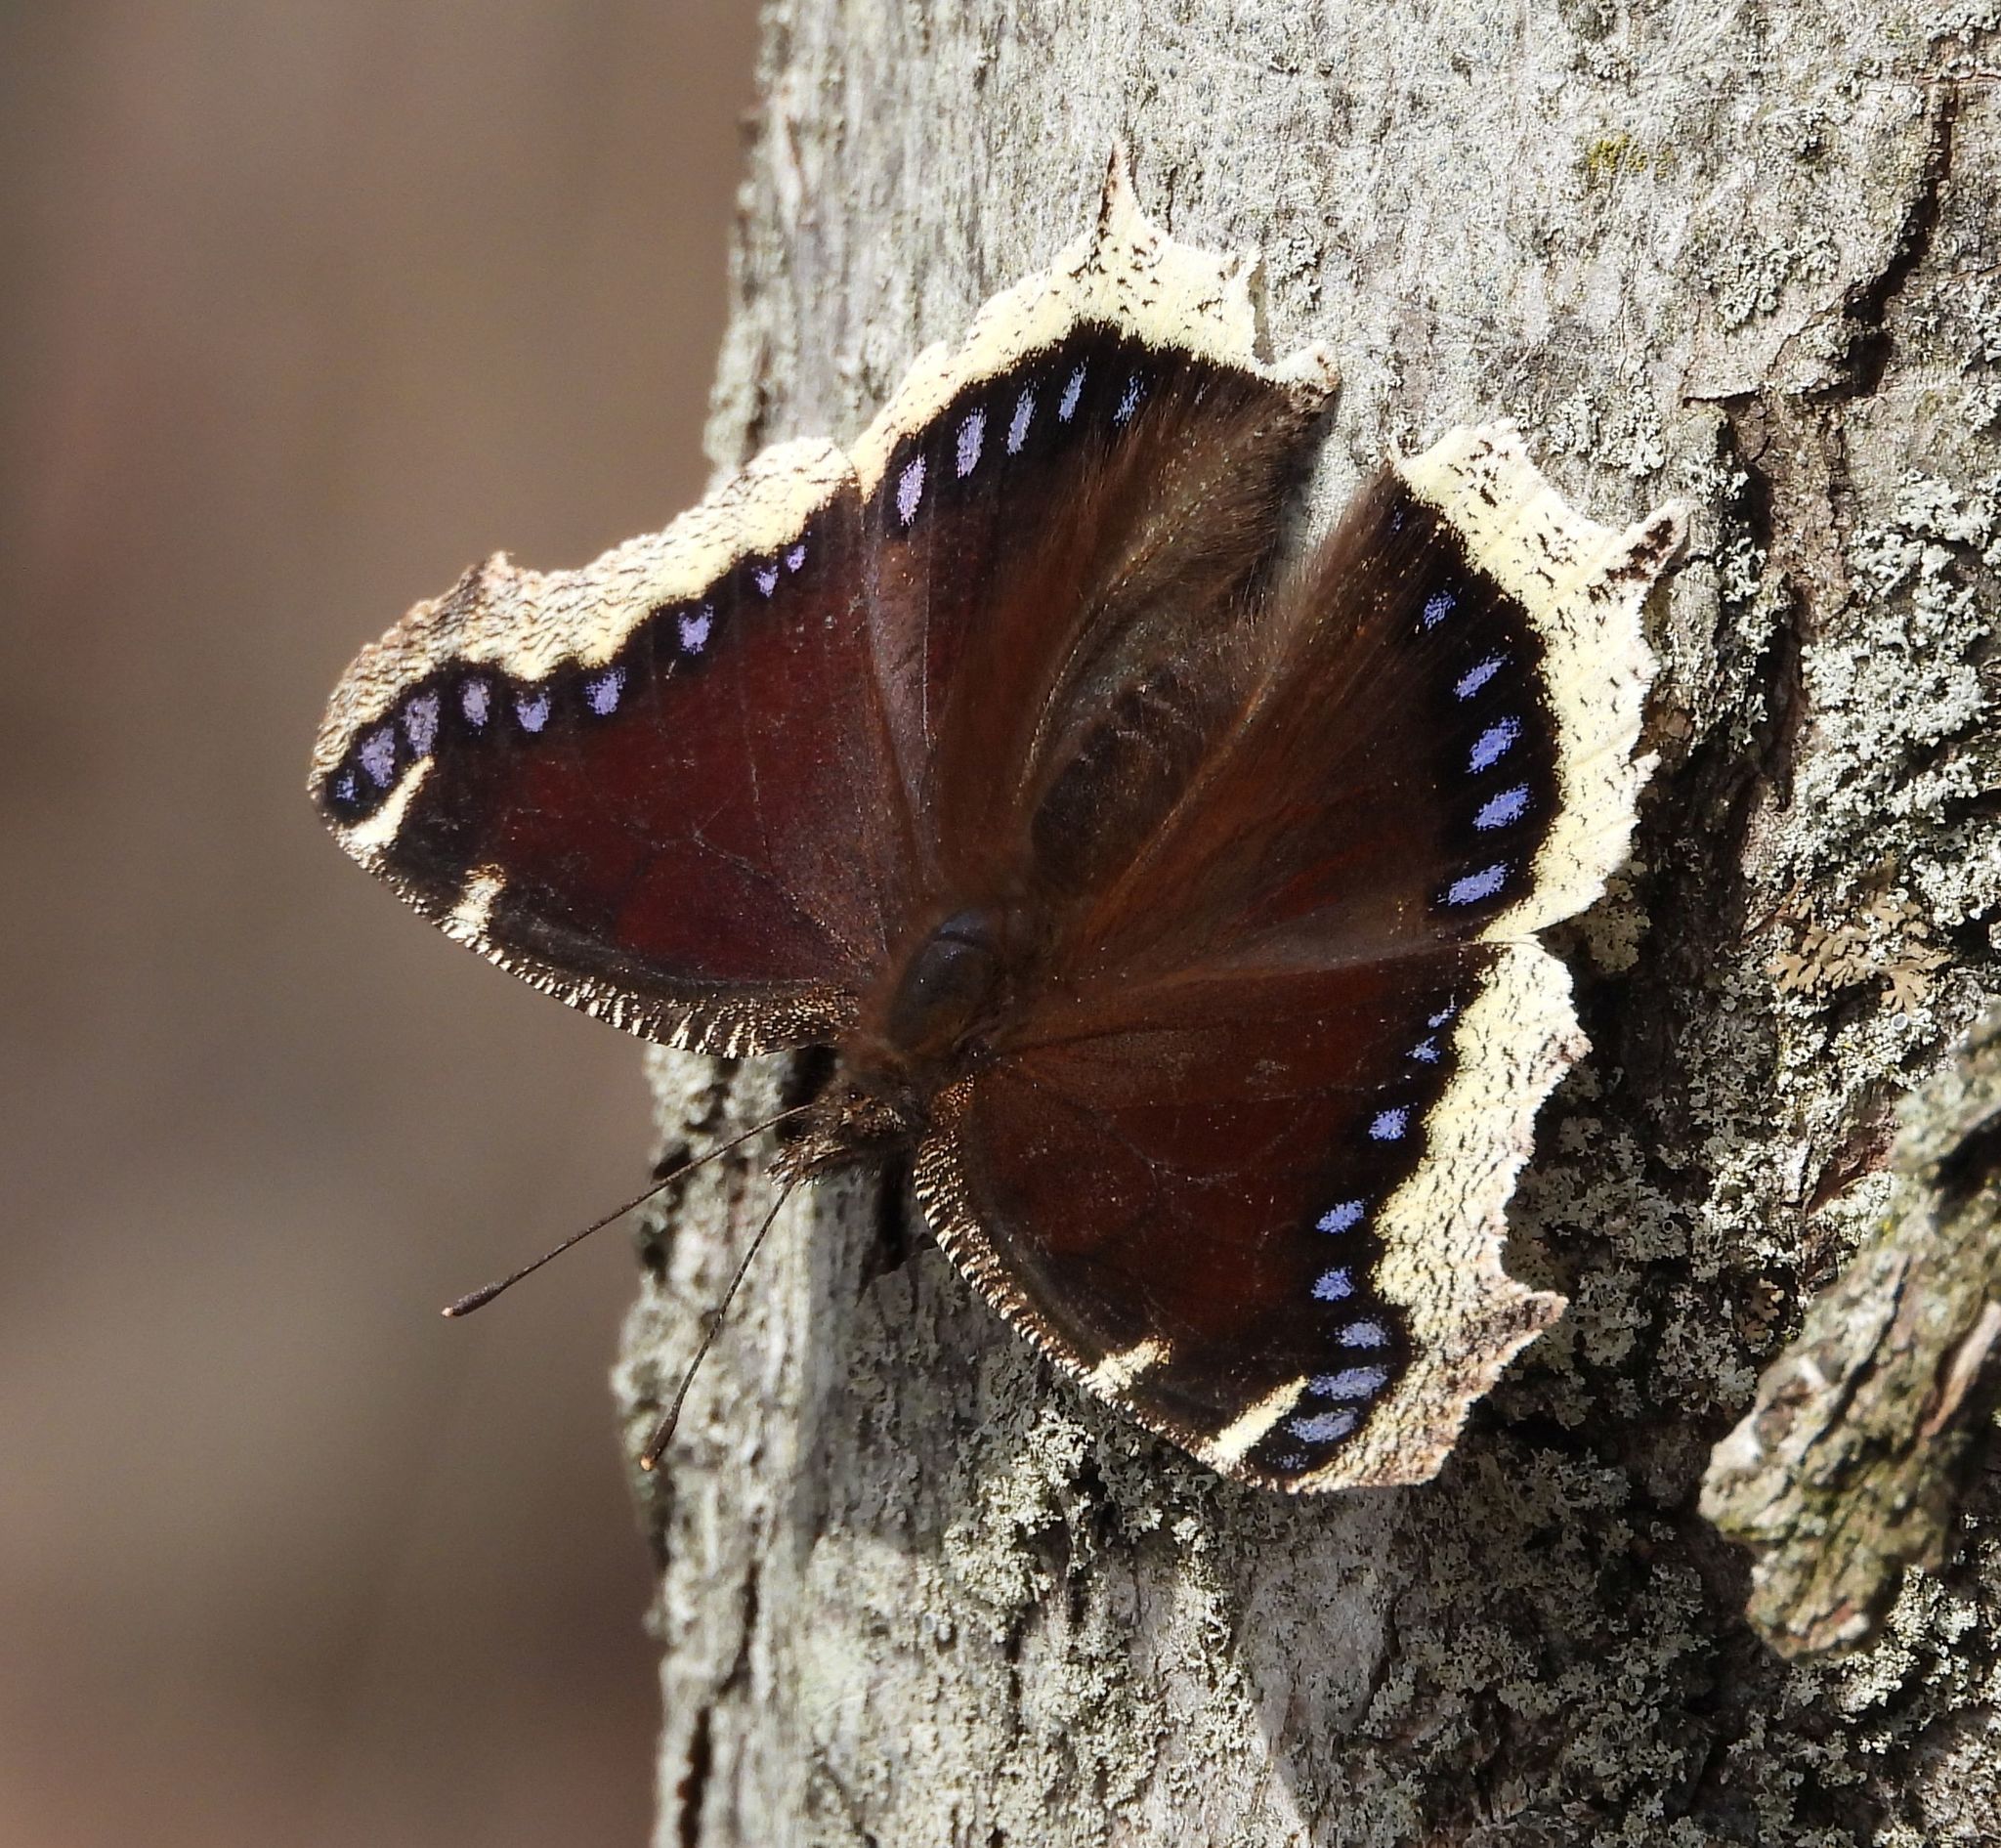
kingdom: Animalia
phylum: Arthropoda
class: Insecta
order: Lepidoptera
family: Nymphalidae
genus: Nymphalis
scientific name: Nymphalis antiopa
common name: Camberwell beauty
